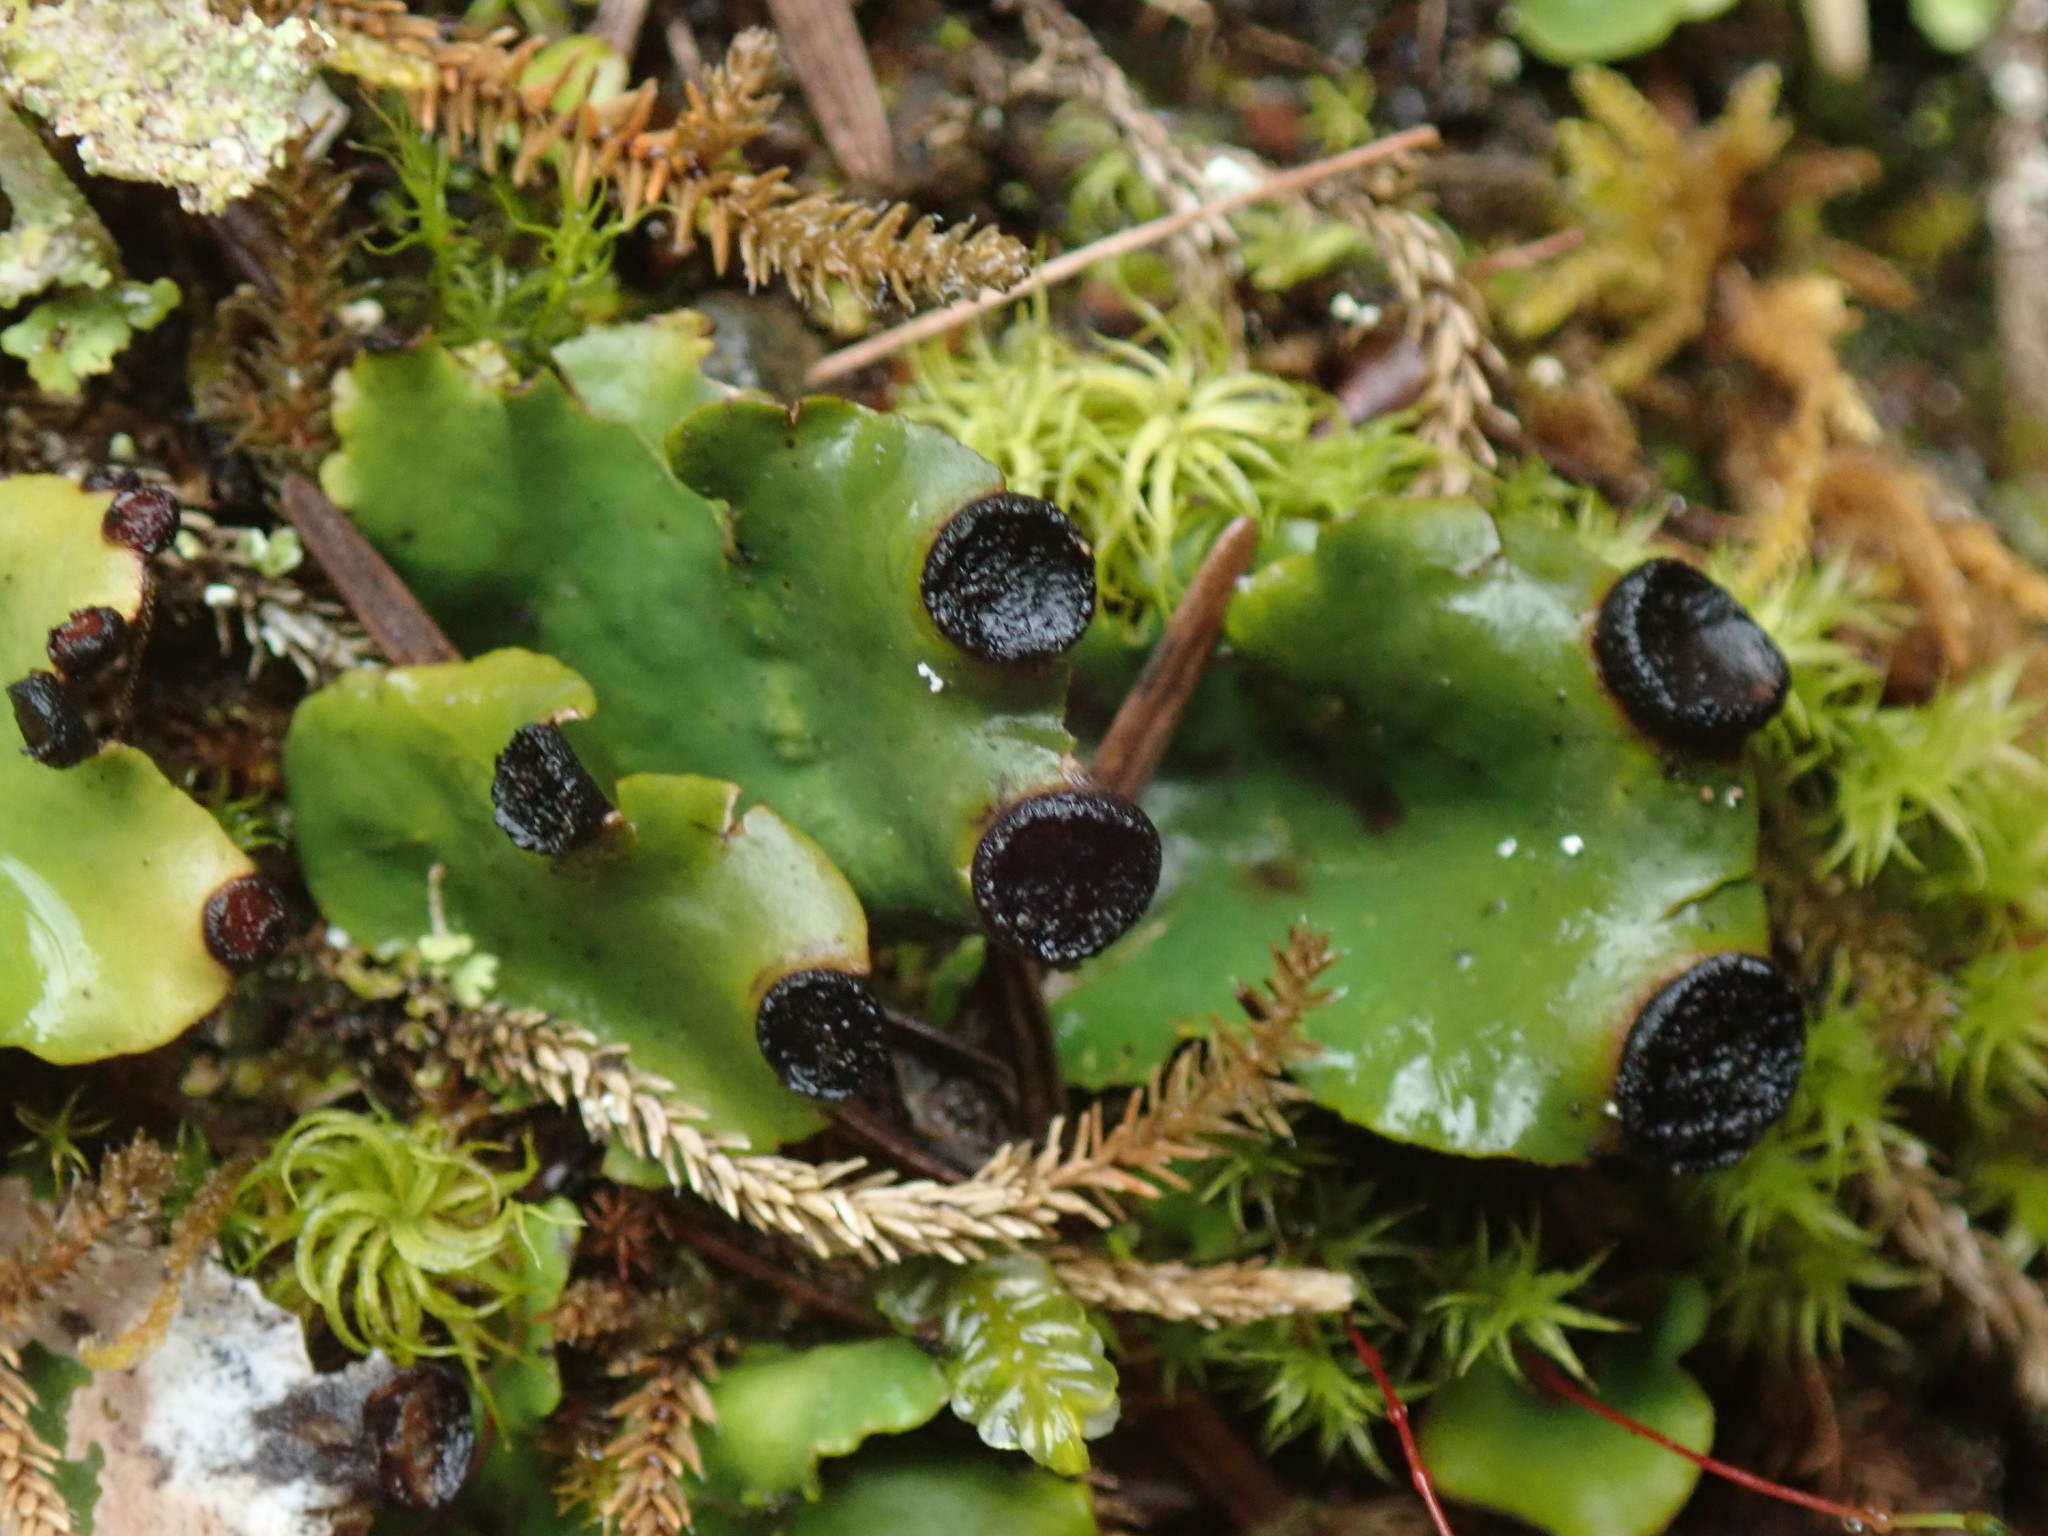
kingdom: Fungi
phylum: Ascomycota
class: Lecanoromycetes
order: Peltigerales
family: Peltigeraceae
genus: Peltigera
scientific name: Peltigera venosa
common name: Pixie gowns lichen
